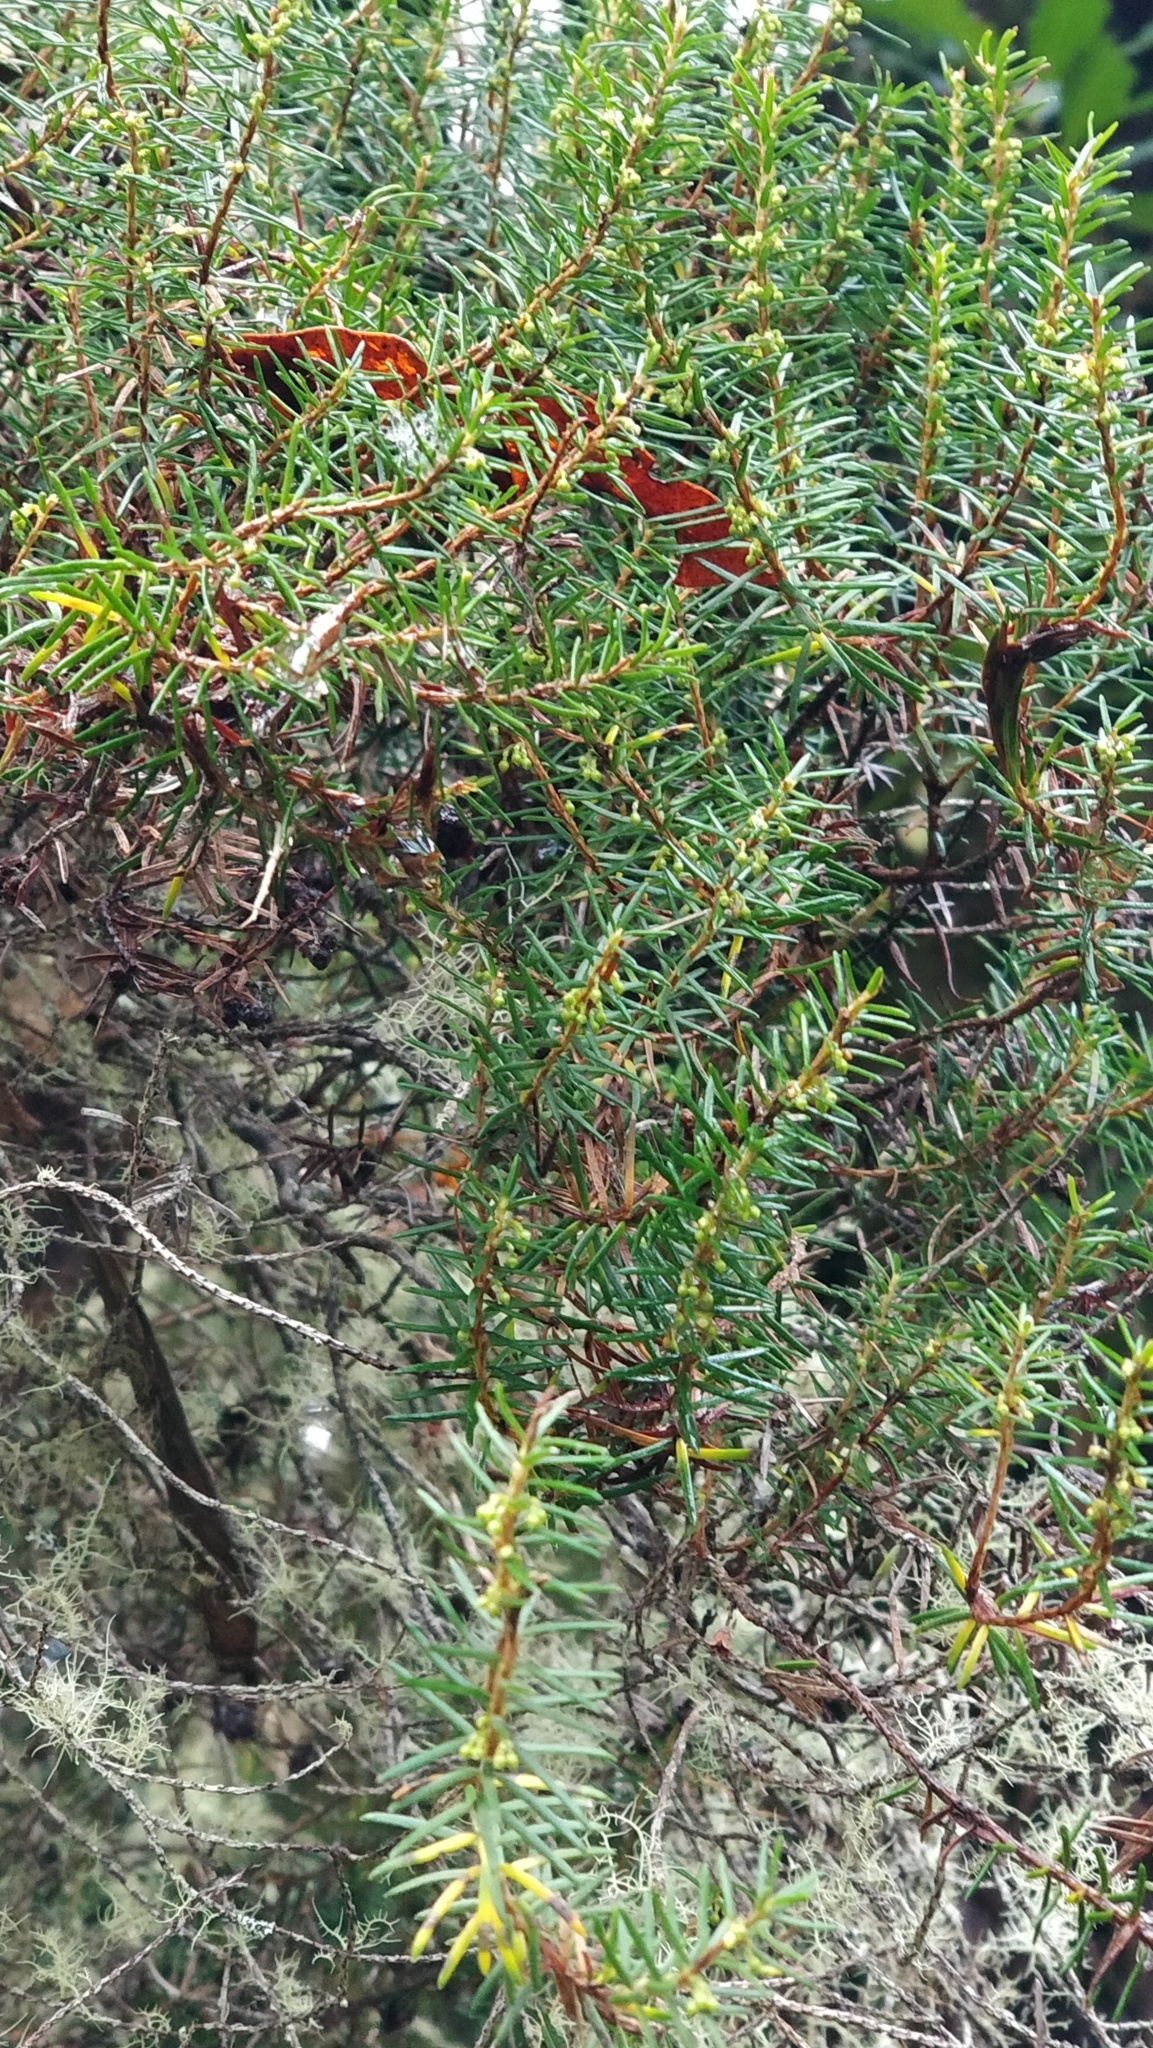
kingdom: Plantae
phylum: Tracheophyta
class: Magnoliopsida
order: Ericales
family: Ericaceae
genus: Erica
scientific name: Erica platycodon
